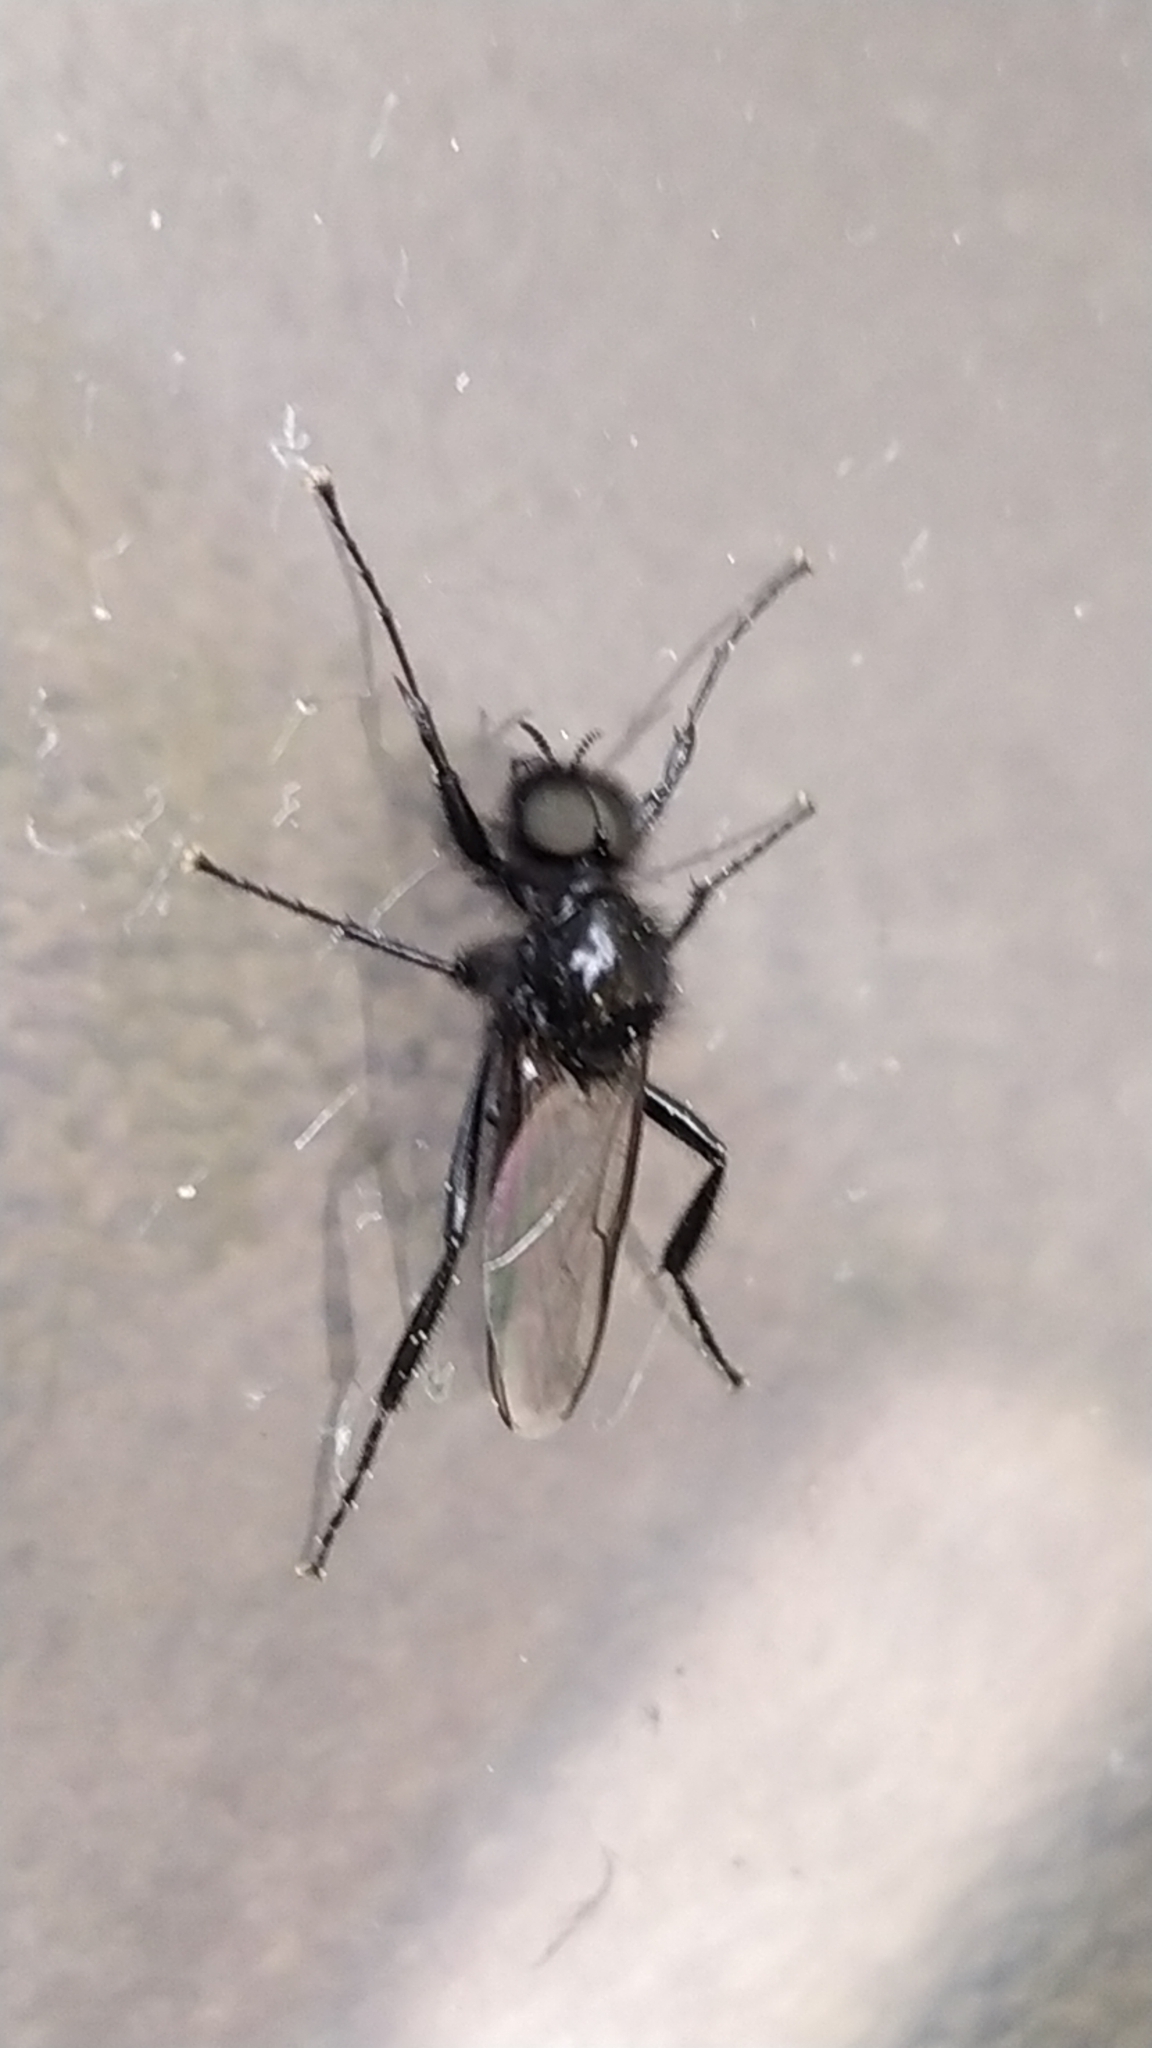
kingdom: Animalia
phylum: Arthropoda
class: Insecta
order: Diptera
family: Bibionidae
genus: Bibio
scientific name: Bibio marci
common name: St marks fly
